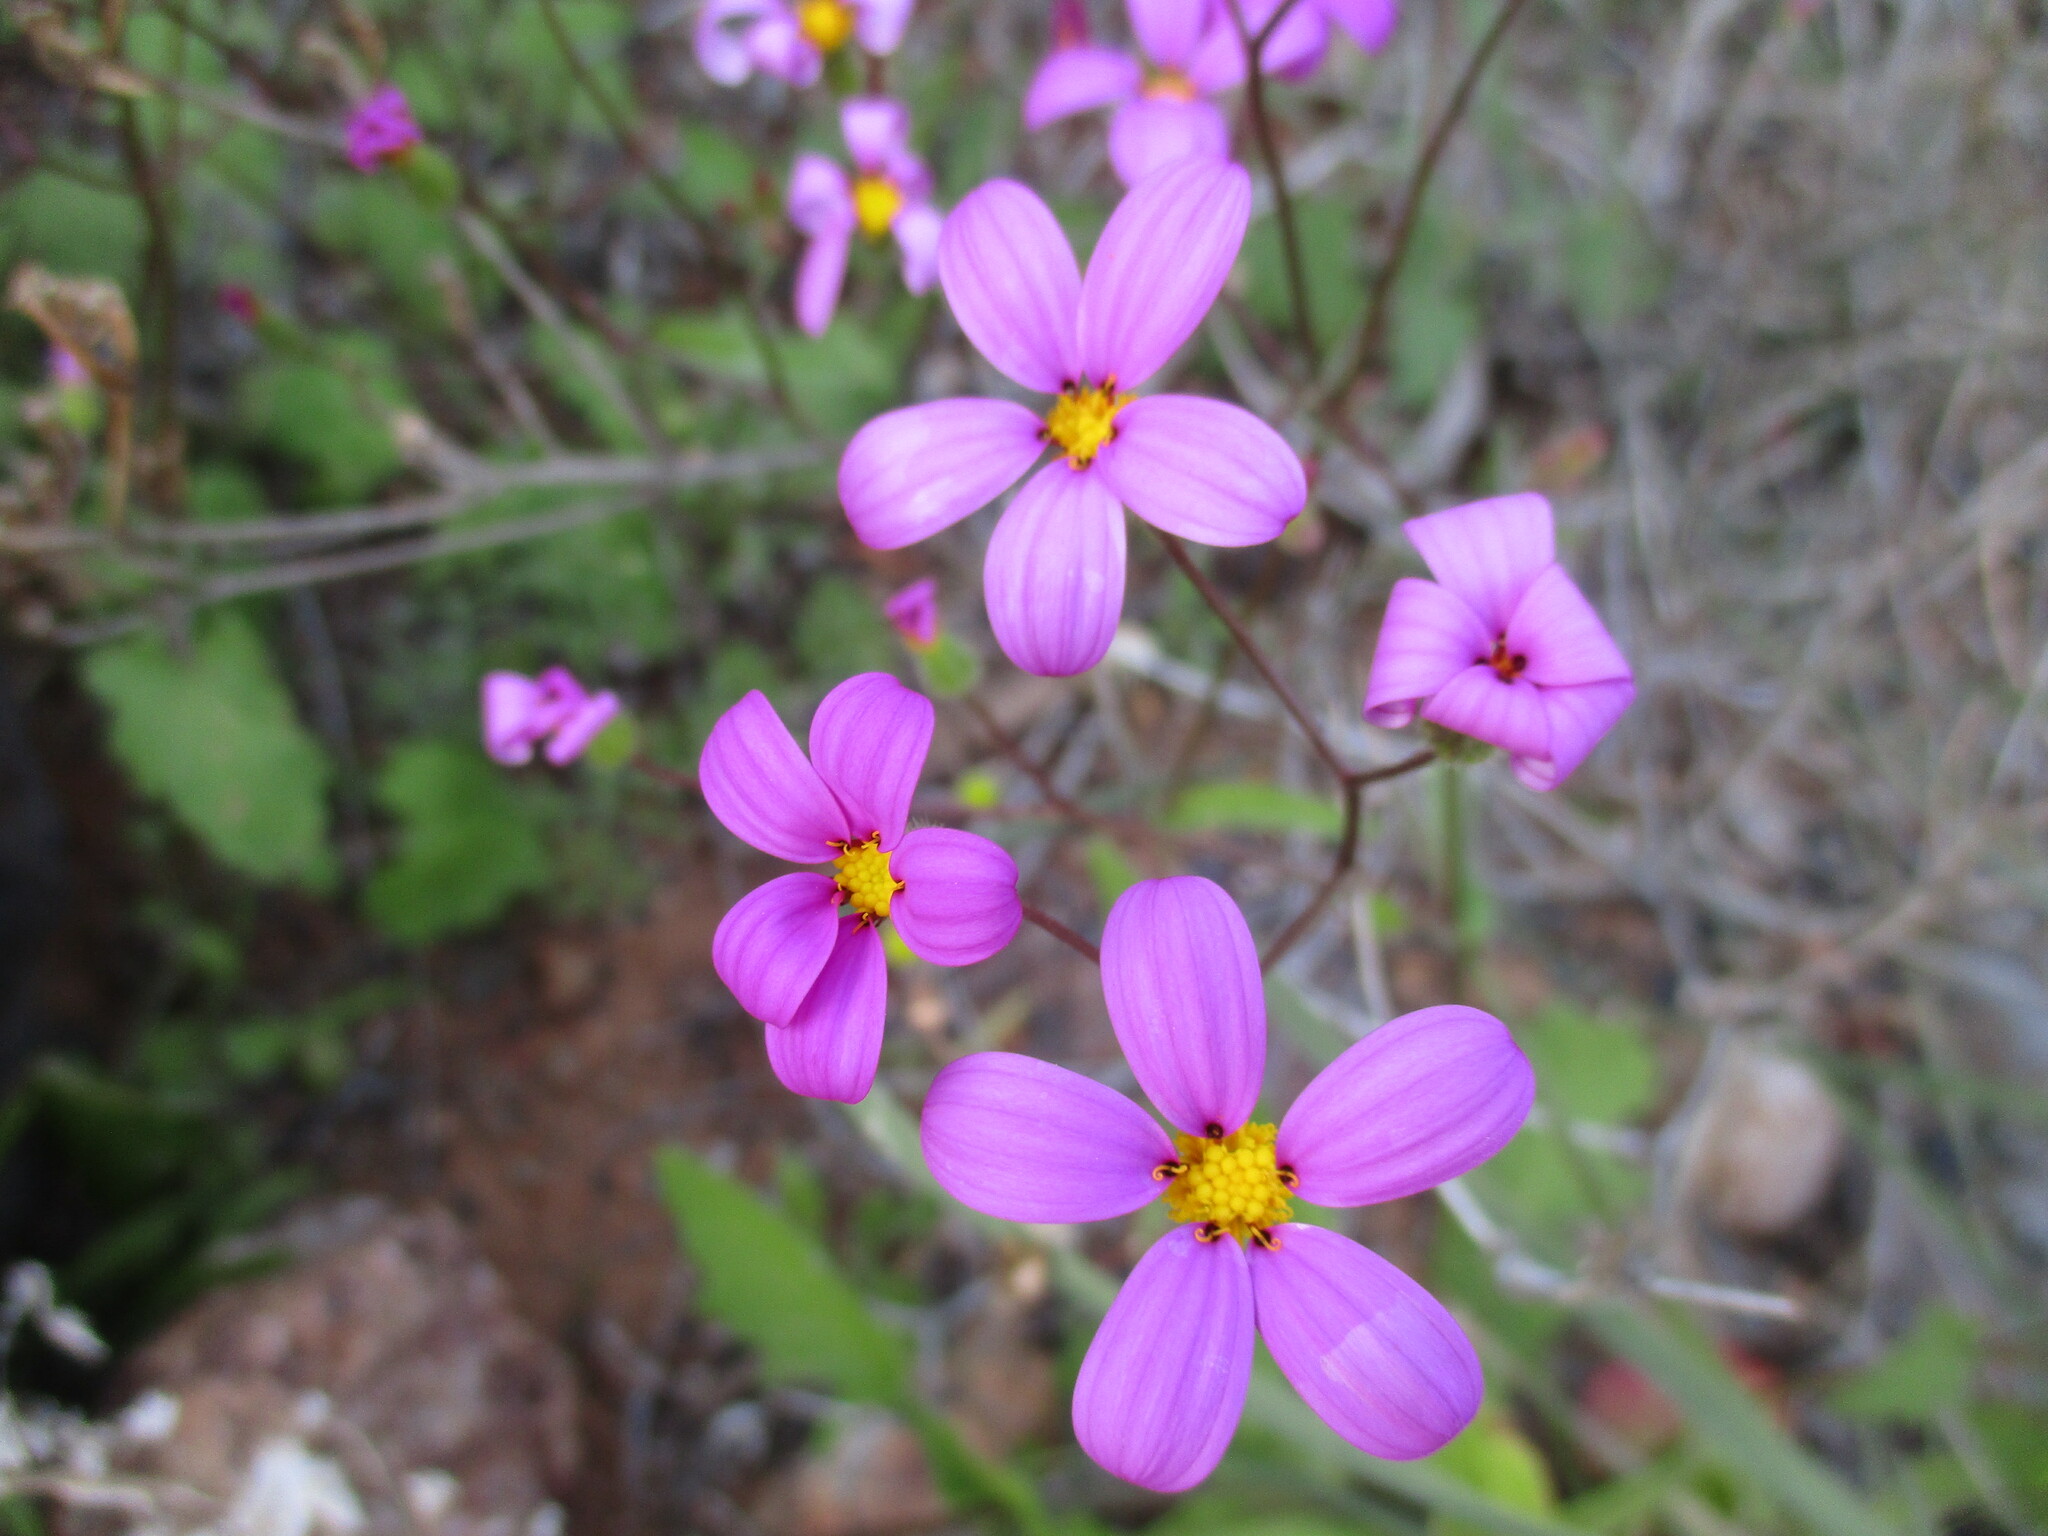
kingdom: Plantae
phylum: Tracheophyta
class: Magnoliopsida
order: Asterales
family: Asteraceae
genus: Senecio
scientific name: Senecio giessii
